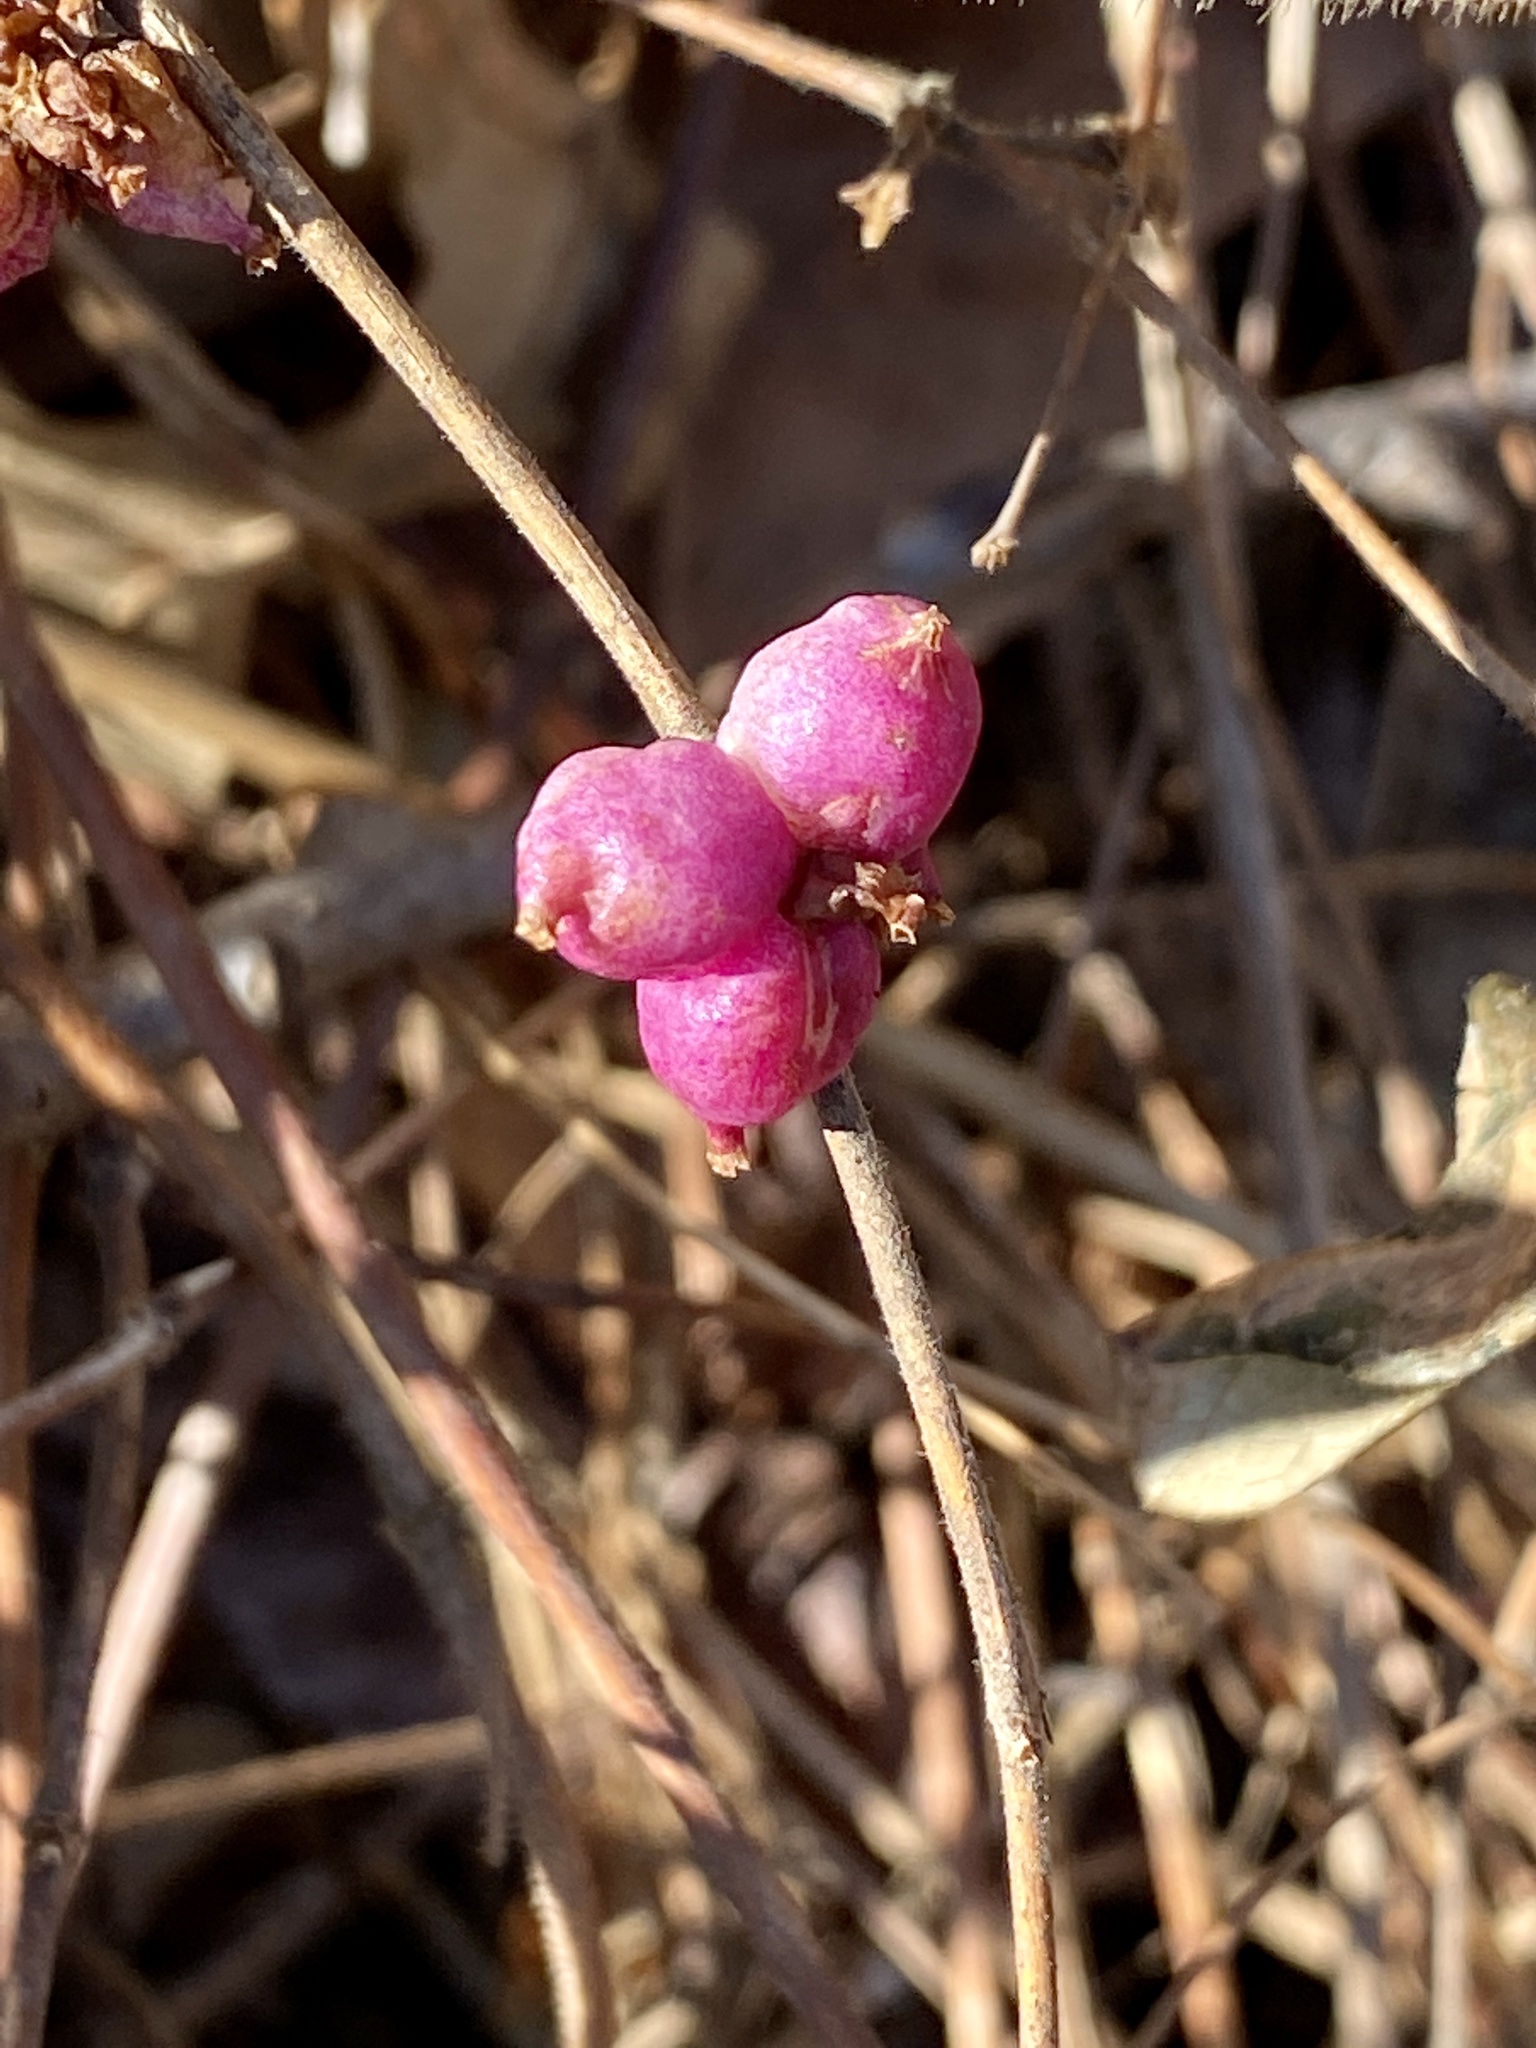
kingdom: Plantae
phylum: Tracheophyta
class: Magnoliopsida
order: Dipsacales
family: Caprifoliaceae
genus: Symphoricarpos
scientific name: Symphoricarpos orbiculatus
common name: Coralberry
